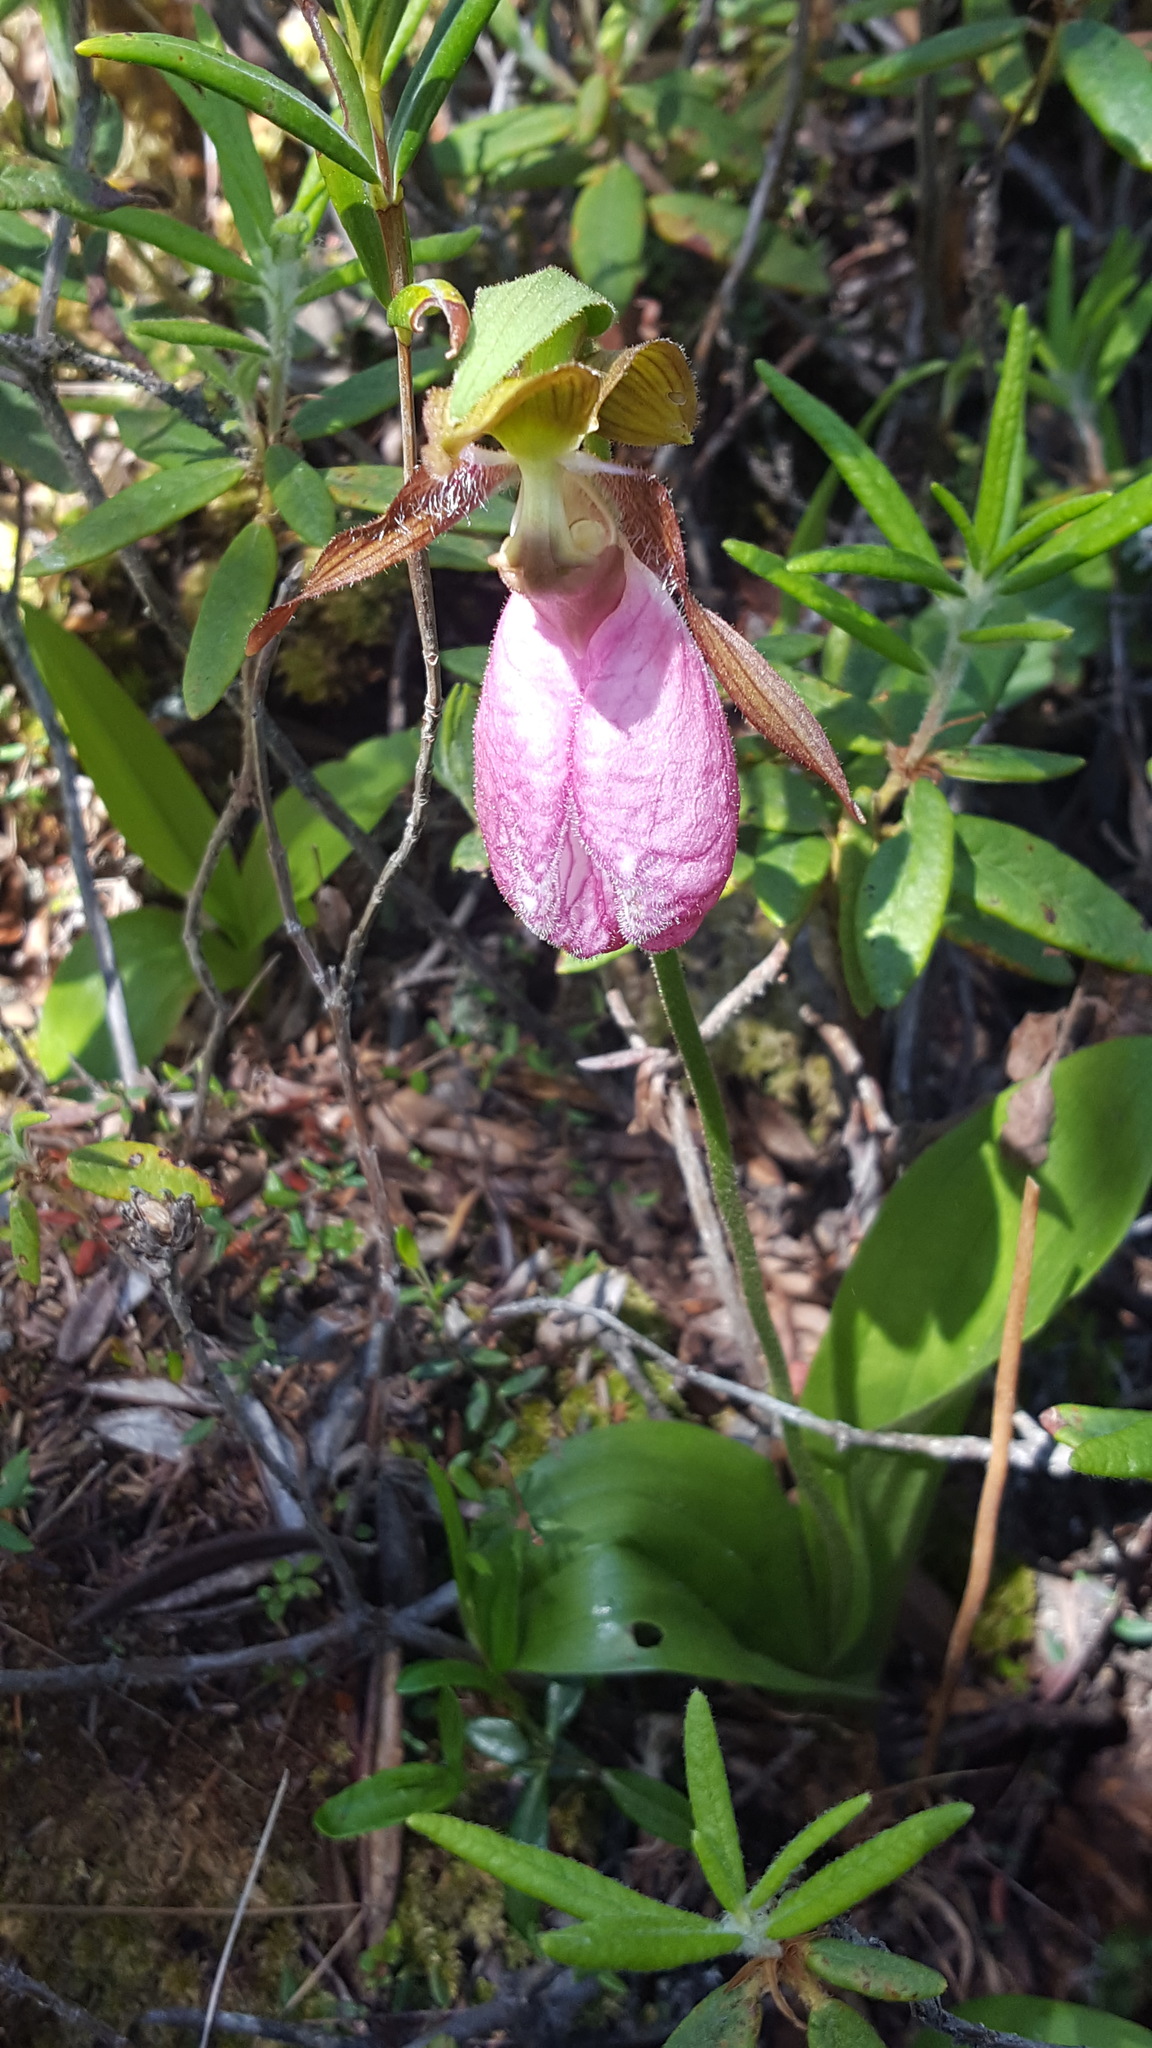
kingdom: Plantae
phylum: Tracheophyta
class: Liliopsida
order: Asparagales
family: Orchidaceae
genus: Cypripedium
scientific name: Cypripedium acaule
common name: Pink lady's-slipper
